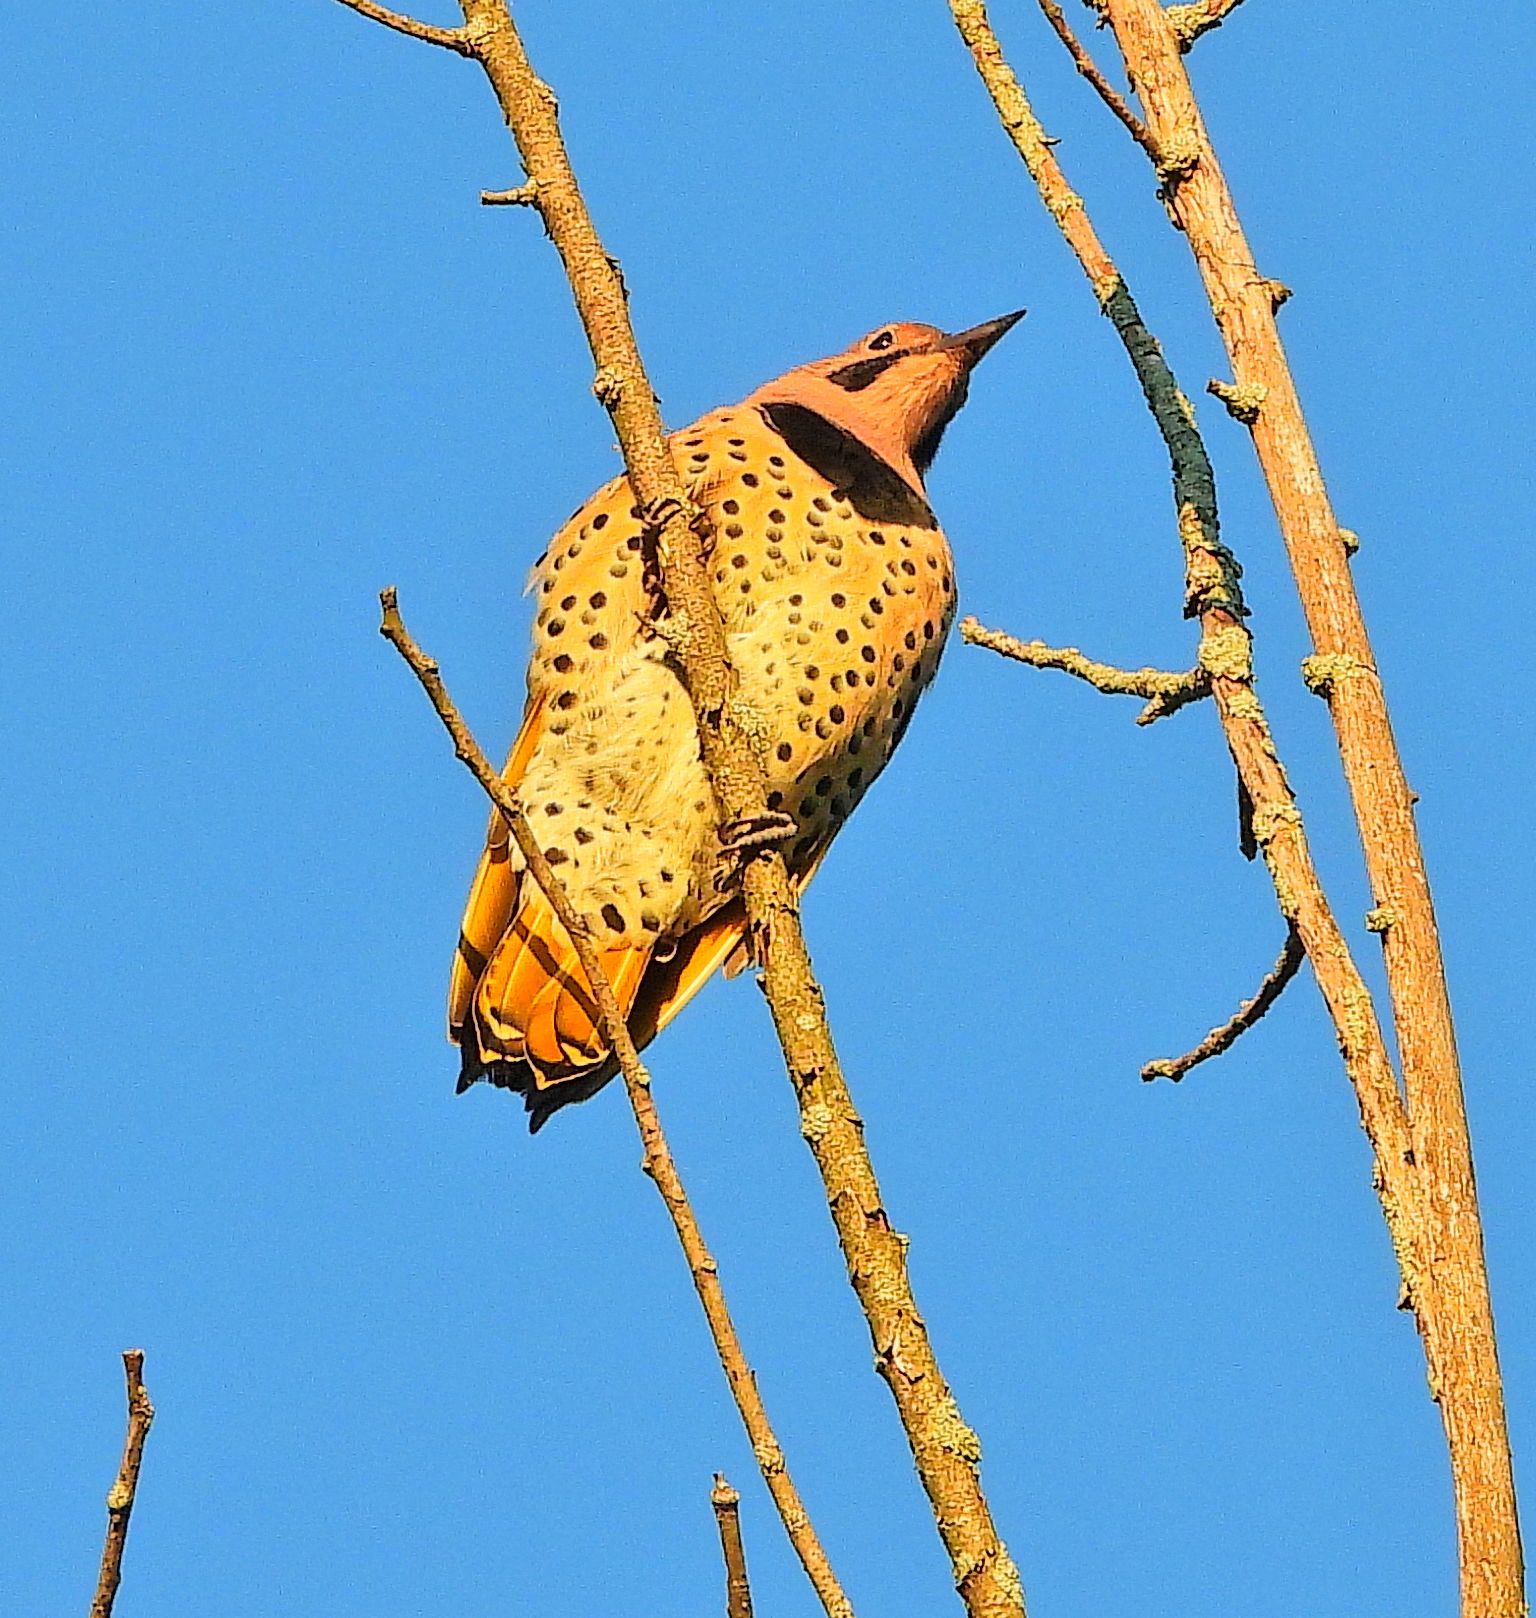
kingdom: Animalia
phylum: Chordata
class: Aves
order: Piciformes
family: Picidae
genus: Colaptes
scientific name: Colaptes auratus
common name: Northern flicker
